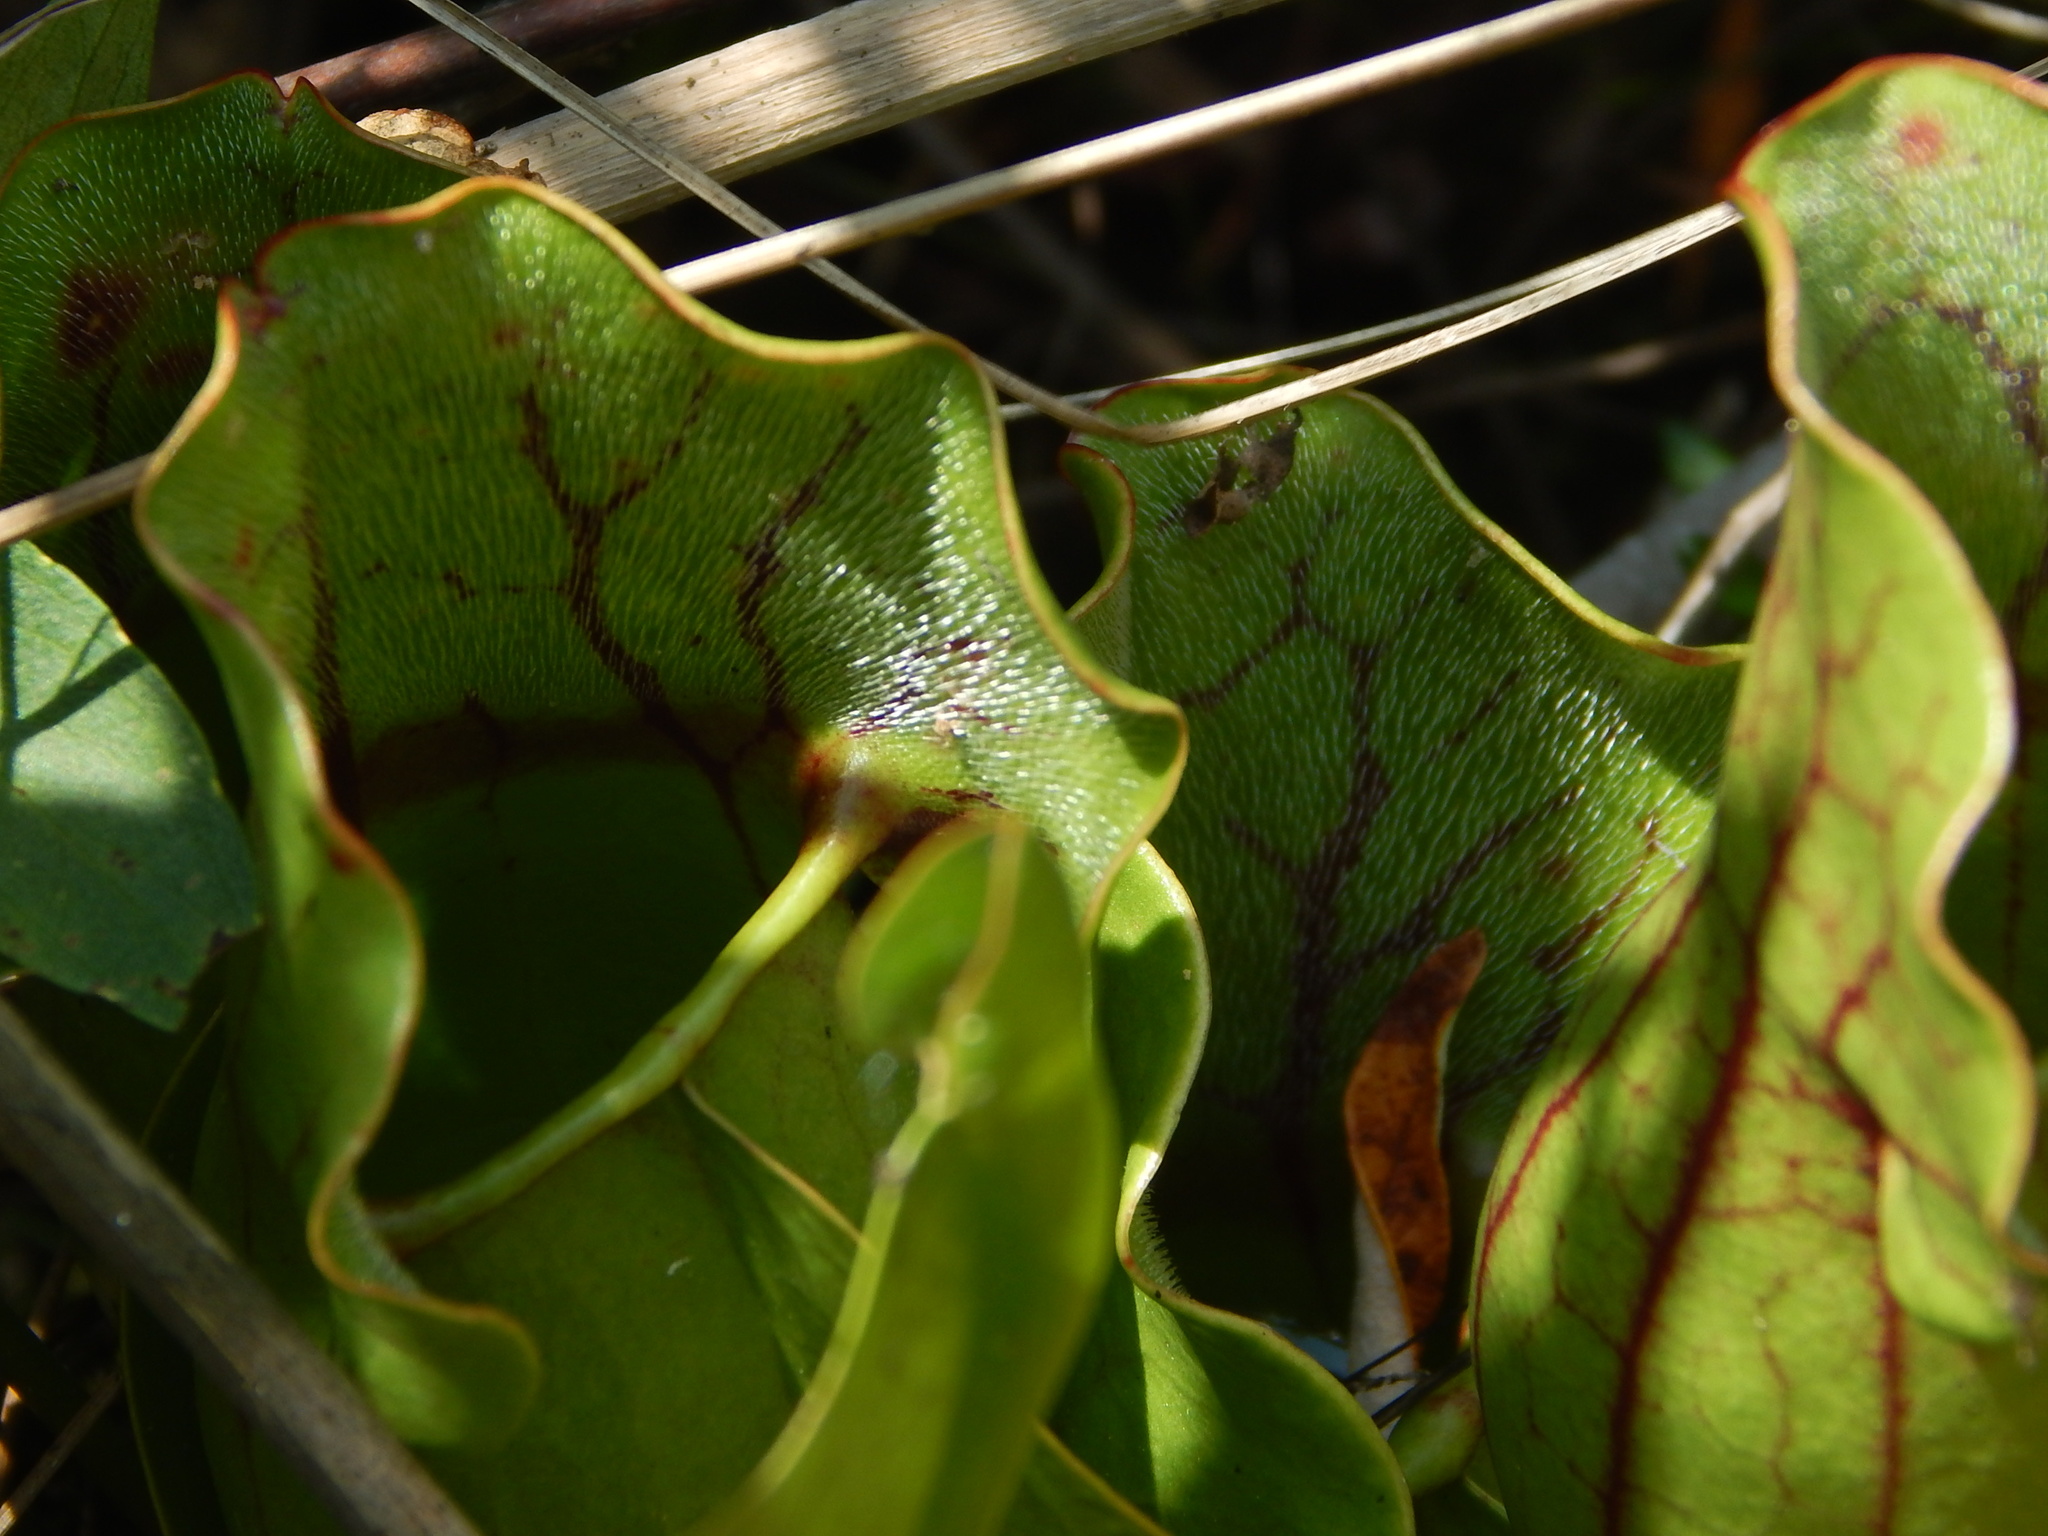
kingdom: Plantae
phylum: Tracheophyta
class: Magnoliopsida
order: Ericales
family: Sarraceniaceae
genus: Sarracenia
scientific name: Sarracenia purpurea
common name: Pitcherplant
